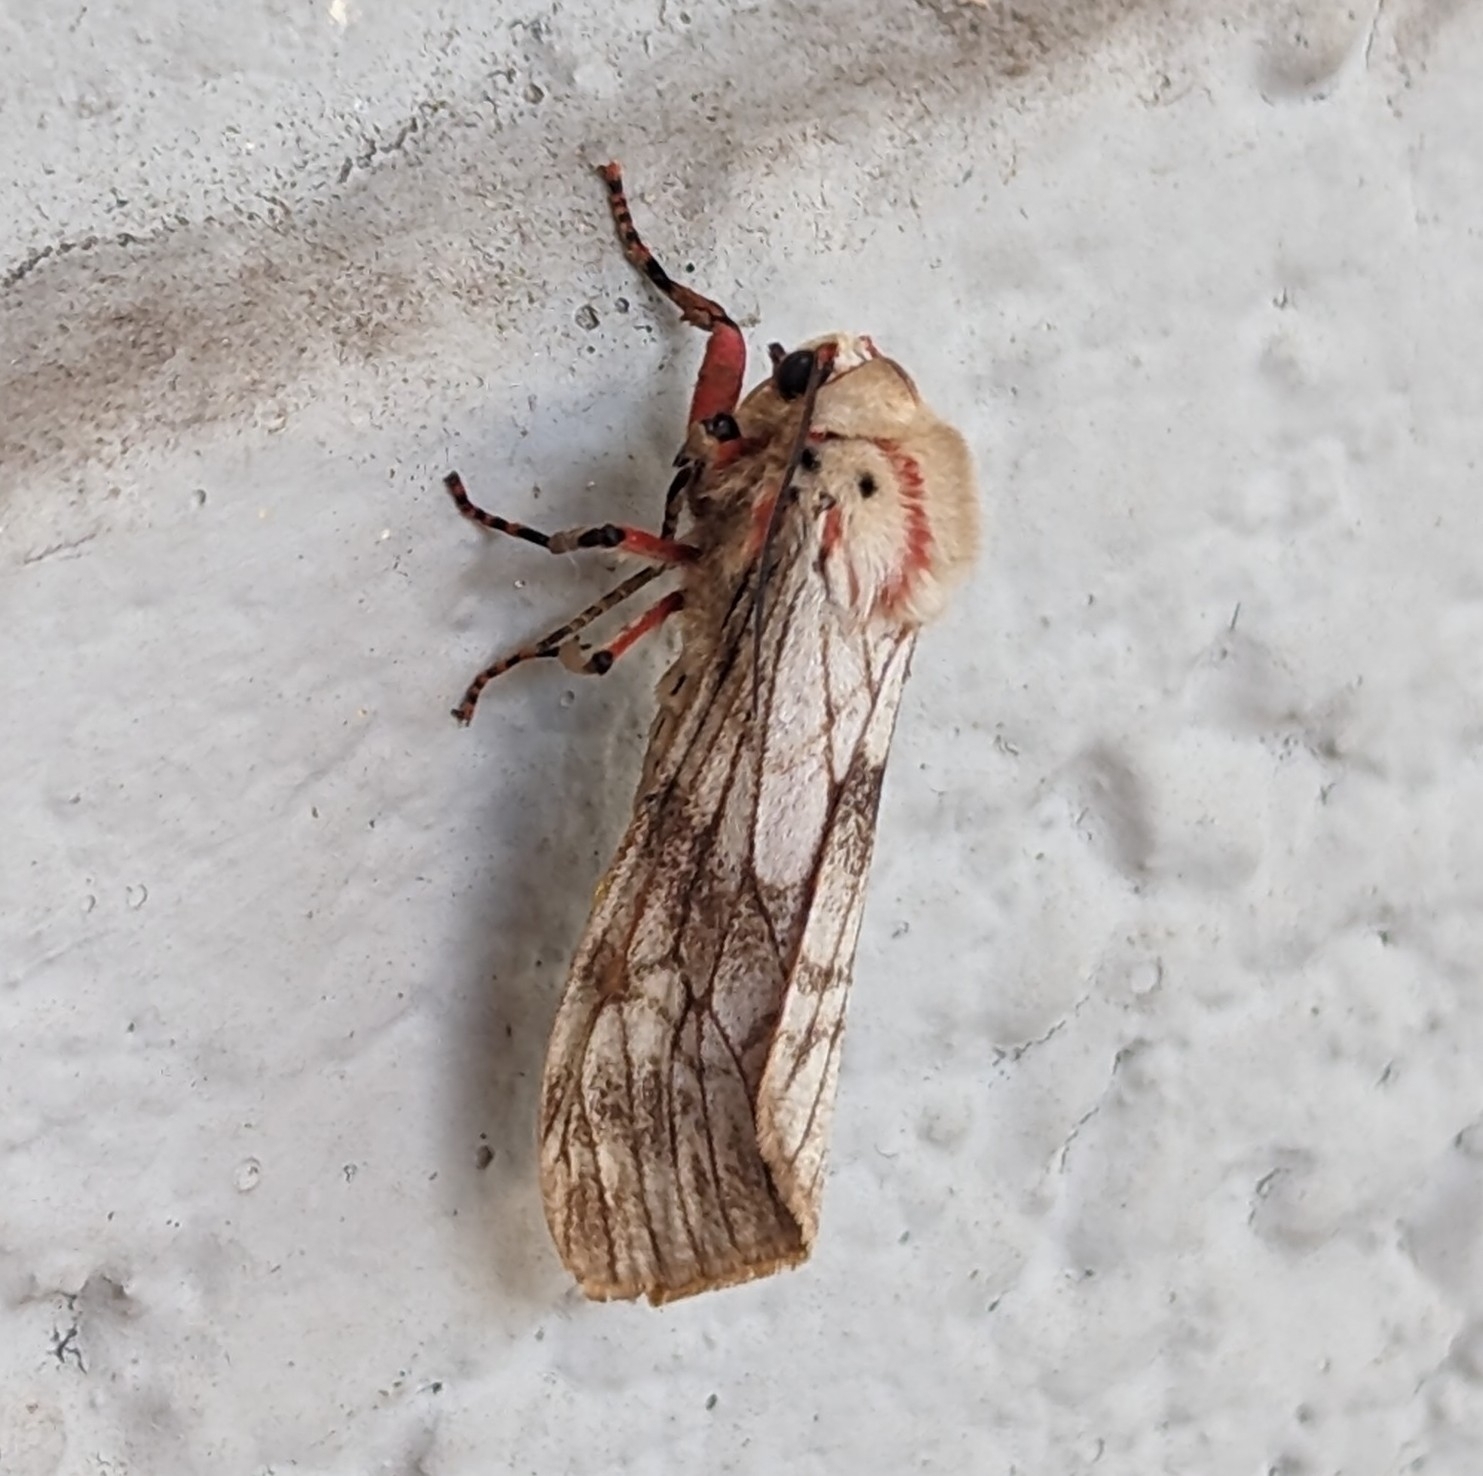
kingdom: Animalia
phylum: Arthropoda
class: Insecta
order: Lepidoptera
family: Erebidae
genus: Teracotona
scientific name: Teracotona rhodophaea
